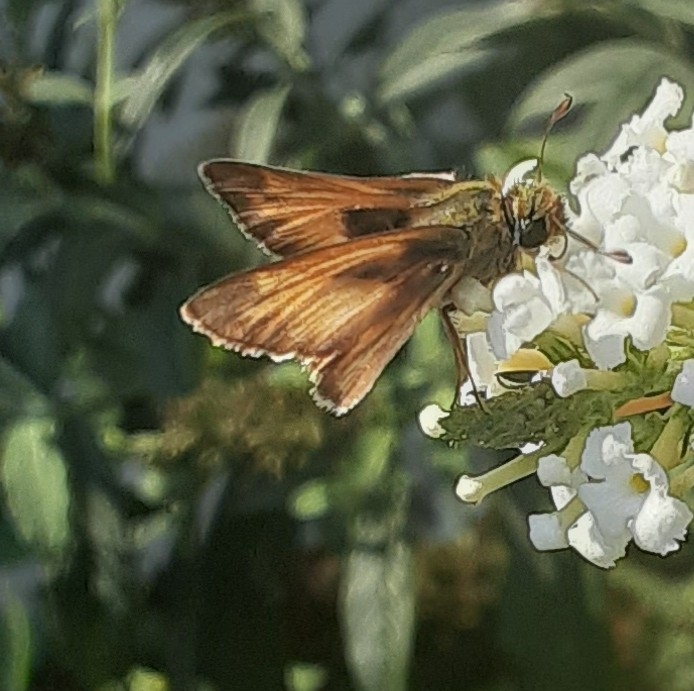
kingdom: Animalia
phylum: Arthropoda
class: Insecta
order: Lepidoptera
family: Hesperiidae
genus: Atalopedes
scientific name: Atalopedes
